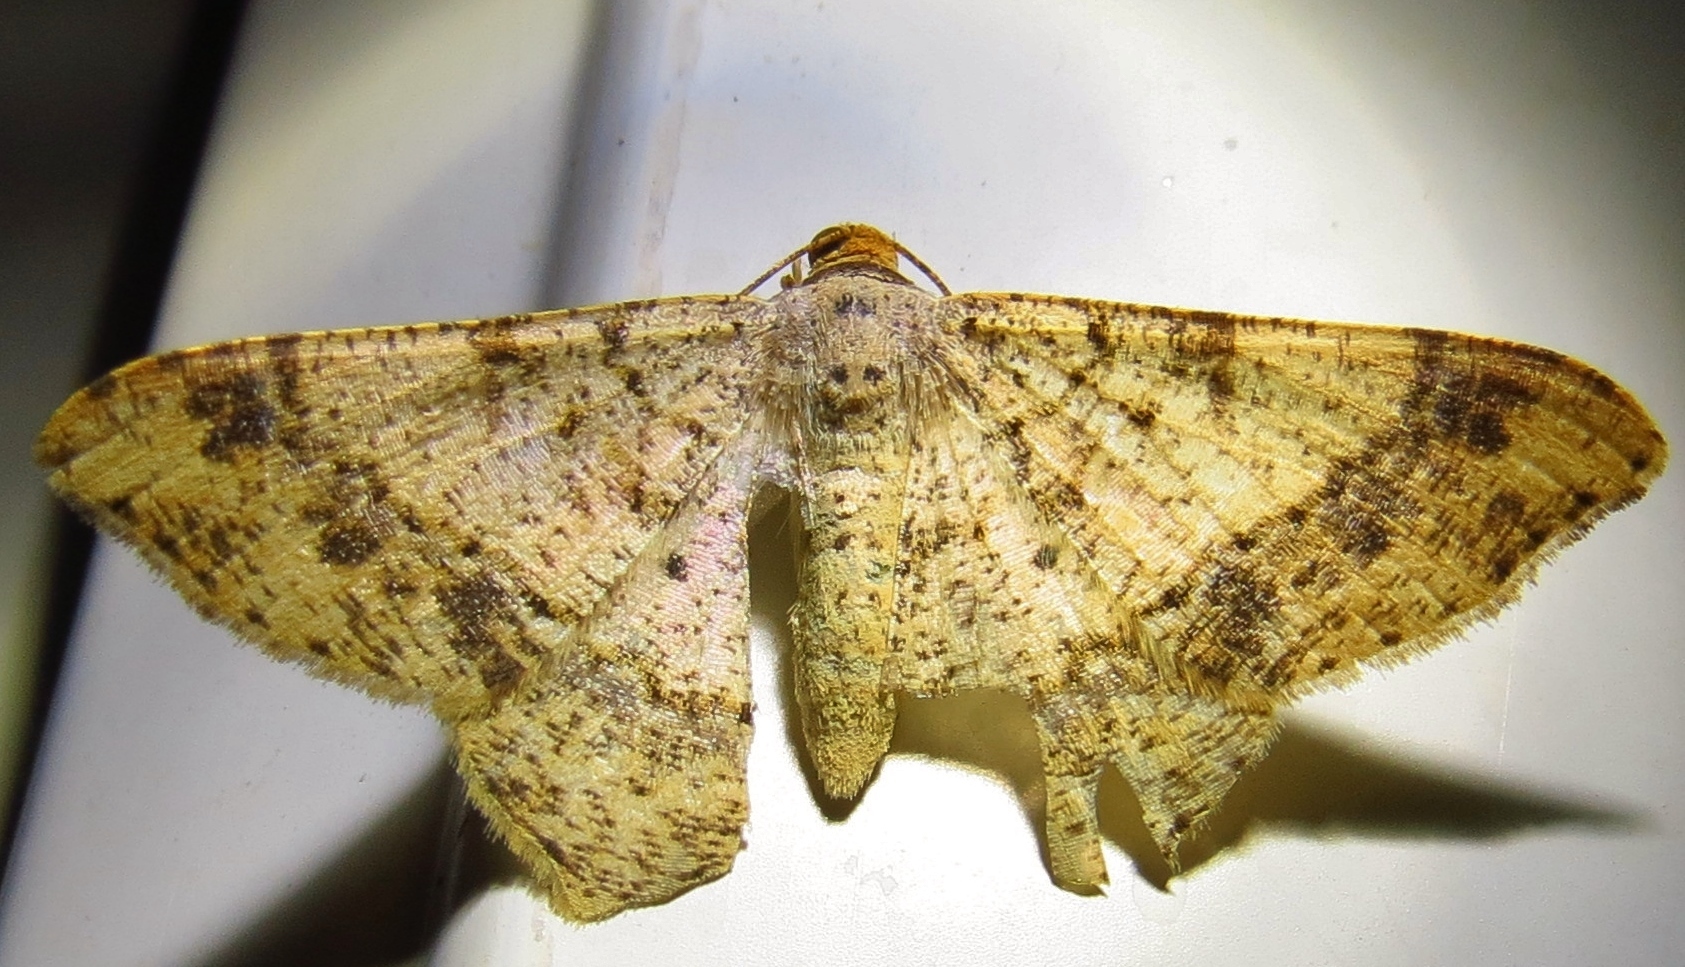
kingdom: Animalia
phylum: Arthropoda
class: Insecta
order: Lepidoptera
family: Geometridae
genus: Macaria
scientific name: Macaria abydata
